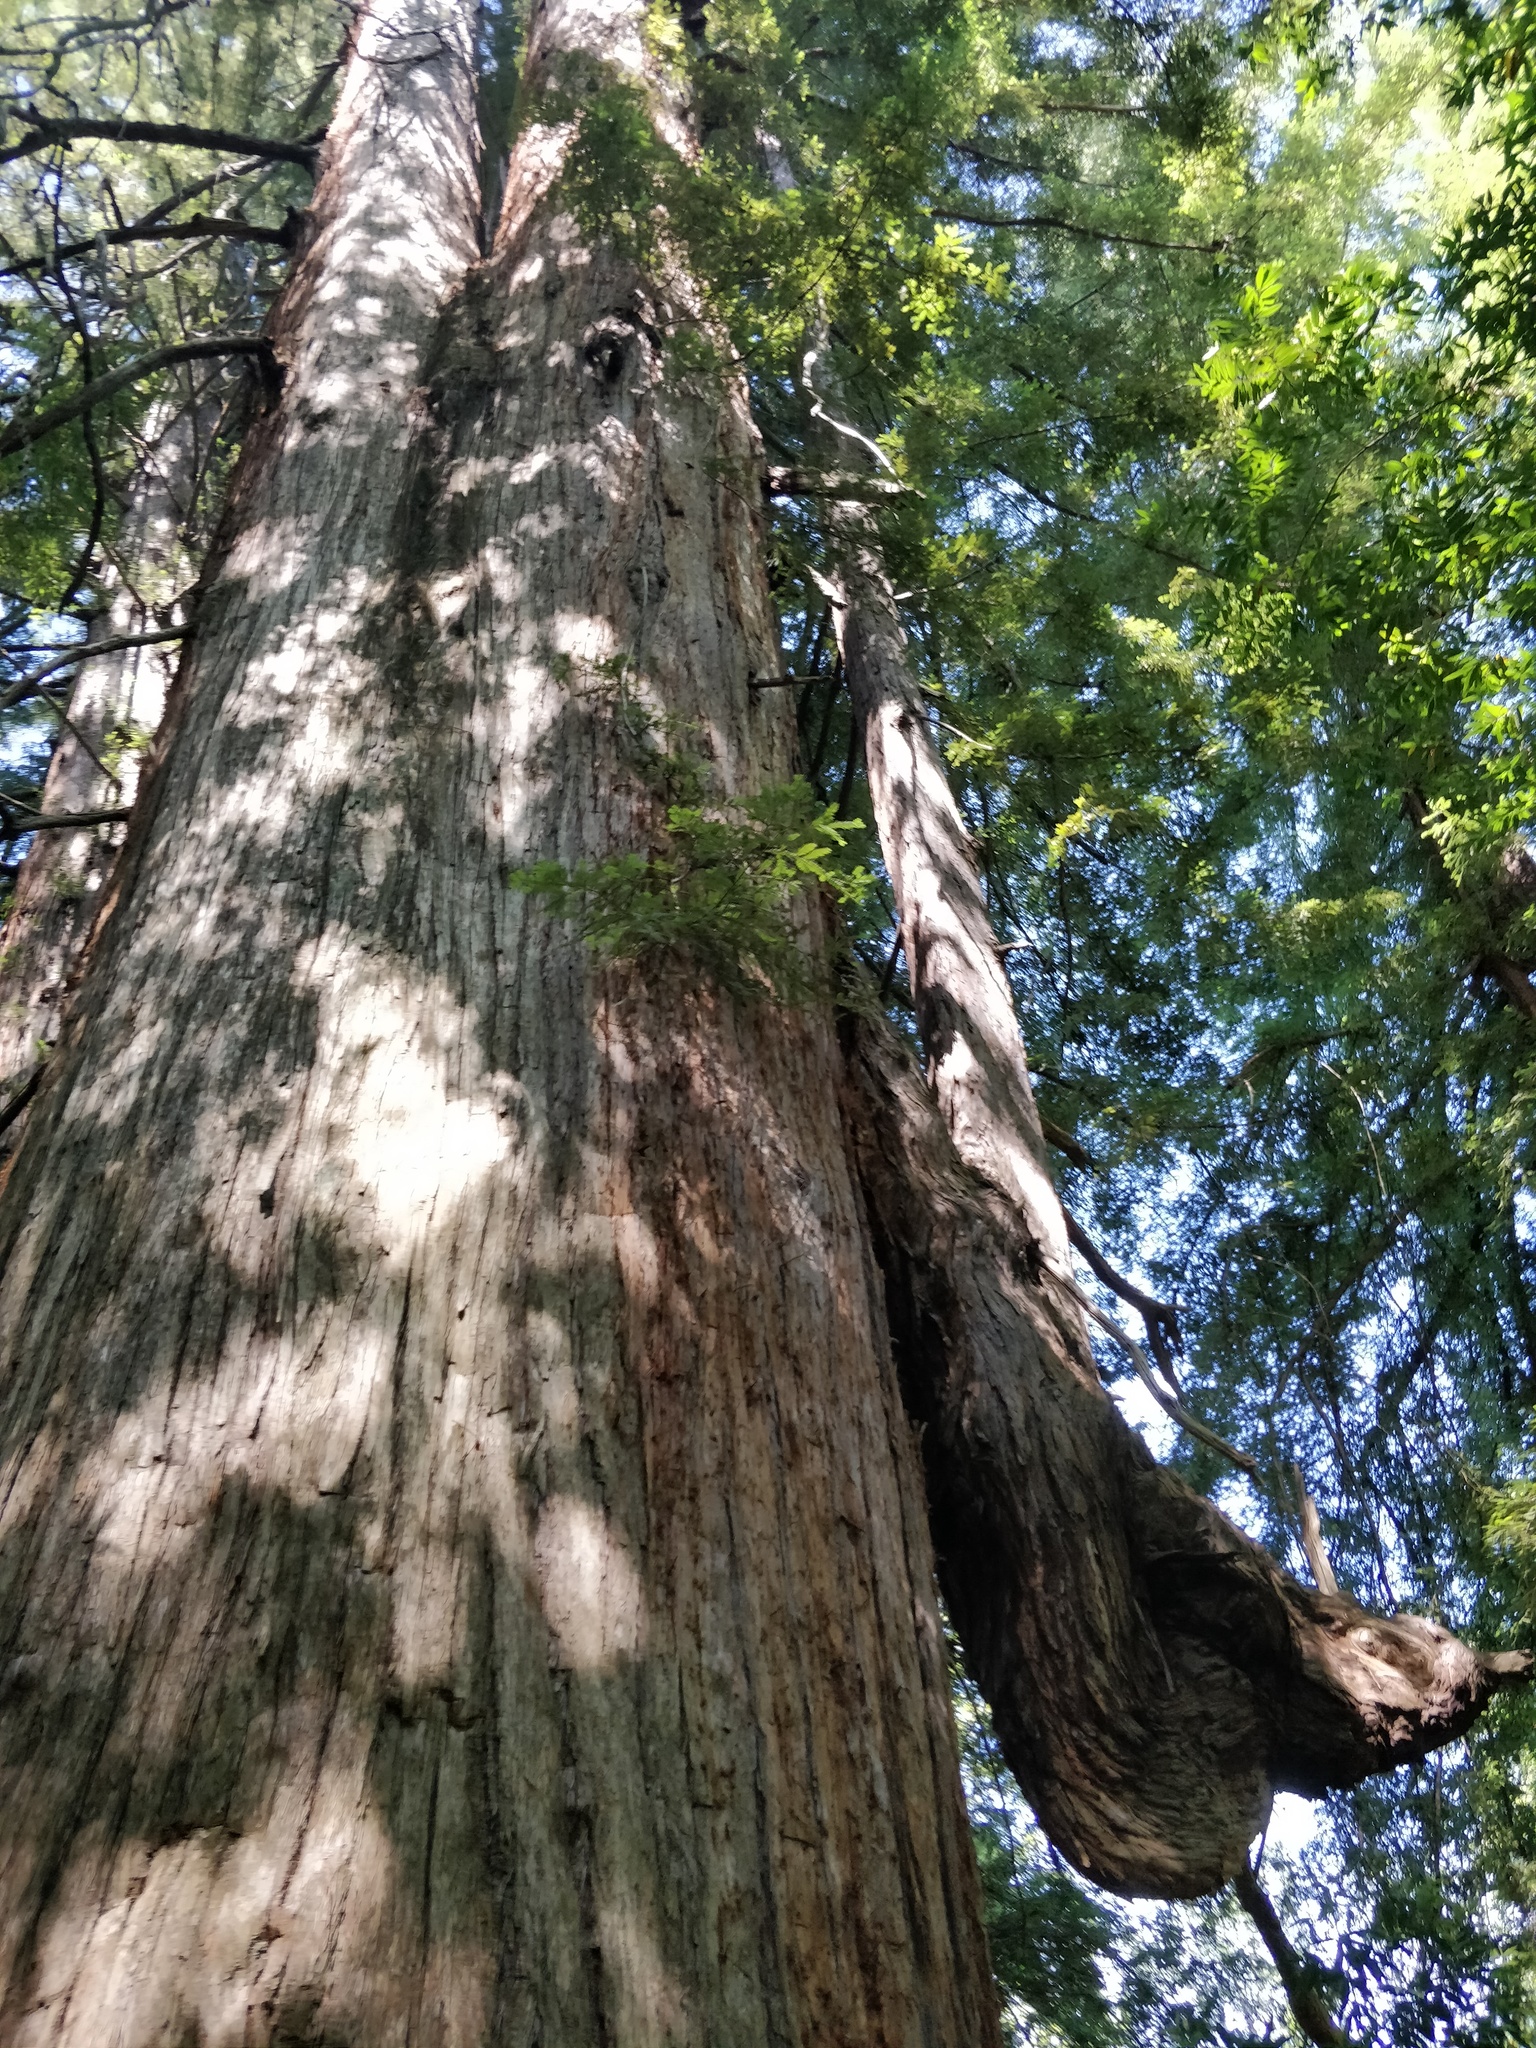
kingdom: Plantae
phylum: Tracheophyta
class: Pinopsida
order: Pinales
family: Cupressaceae
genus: Sequoia
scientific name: Sequoia sempervirens
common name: Coast redwood
